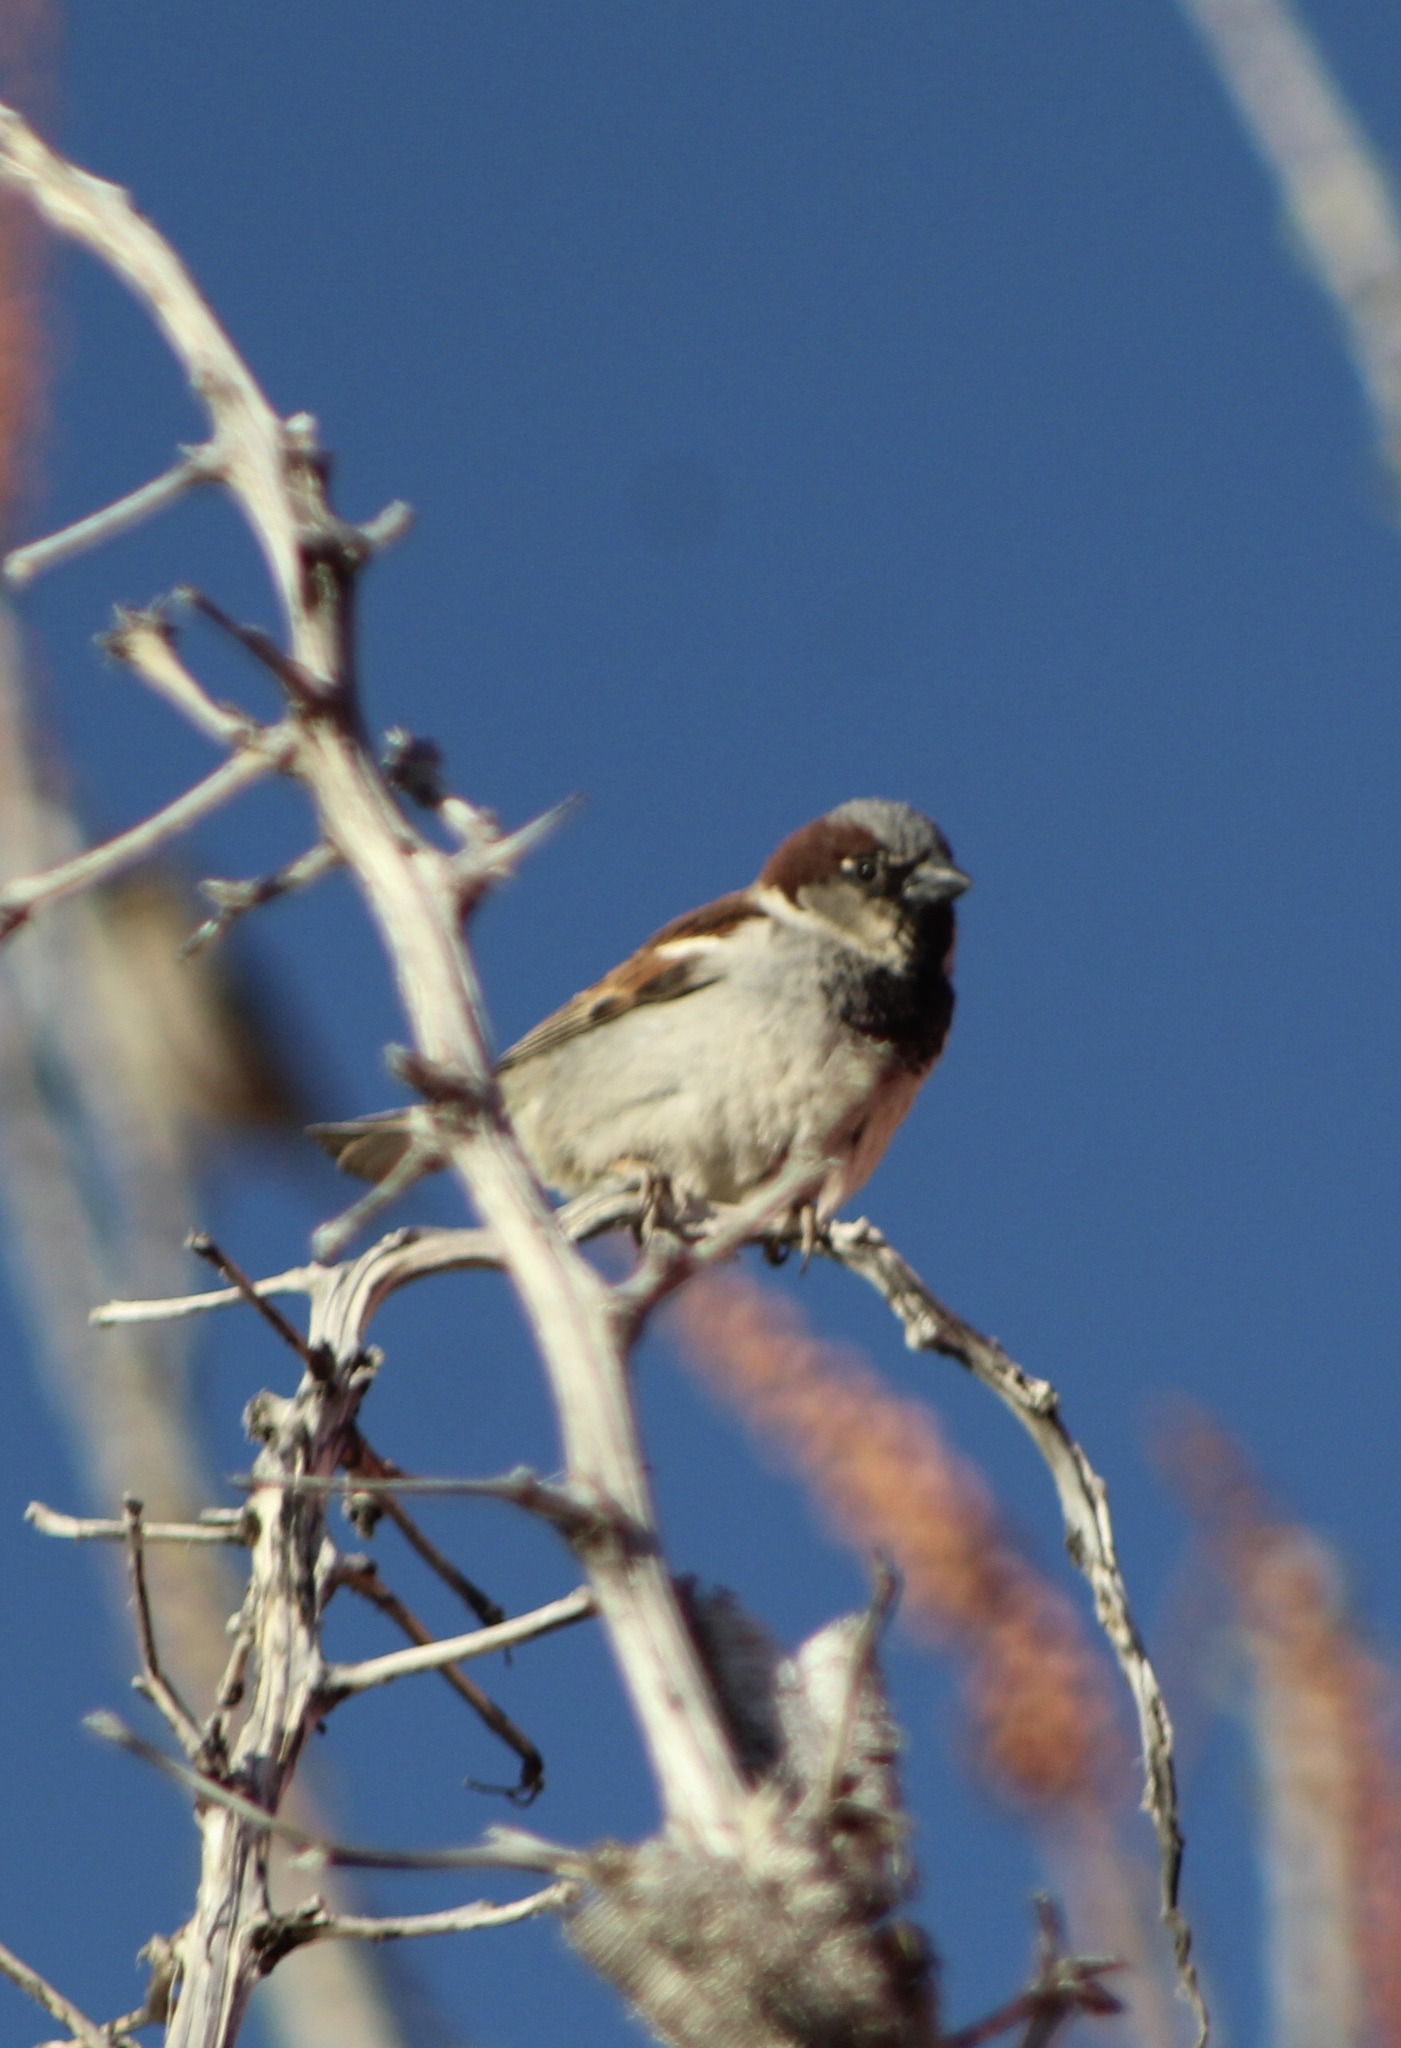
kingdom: Animalia
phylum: Chordata
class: Aves
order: Passeriformes
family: Passeridae
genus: Passer
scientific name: Passer domesticus
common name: House sparrow
